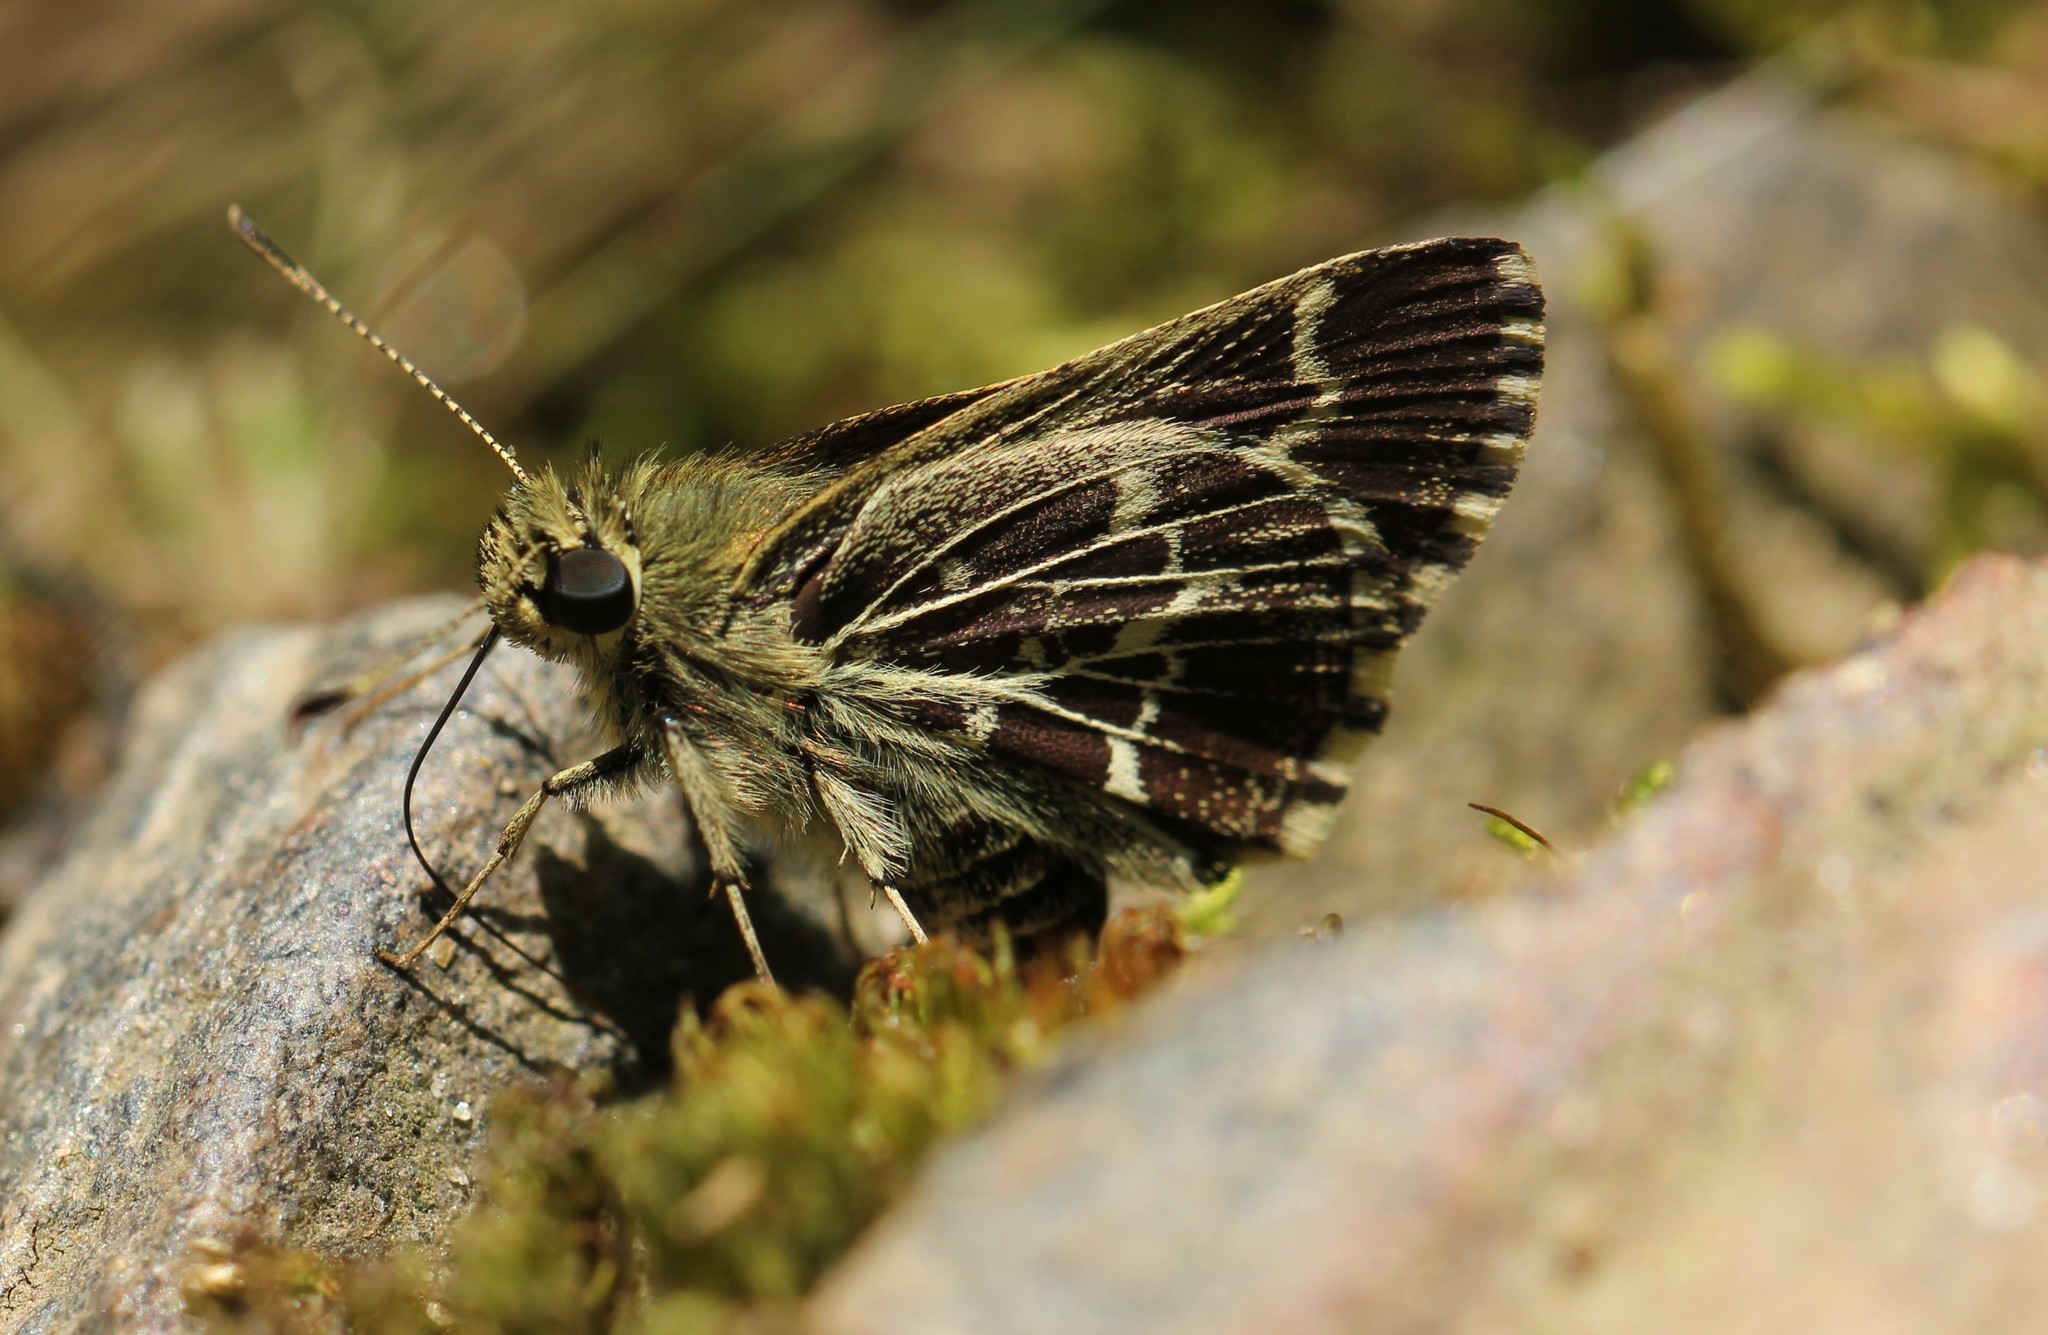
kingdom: Animalia
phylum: Arthropoda
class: Insecta
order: Lepidoptera
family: Hesperiidae
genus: Mastor
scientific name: Mastor aesculapius
